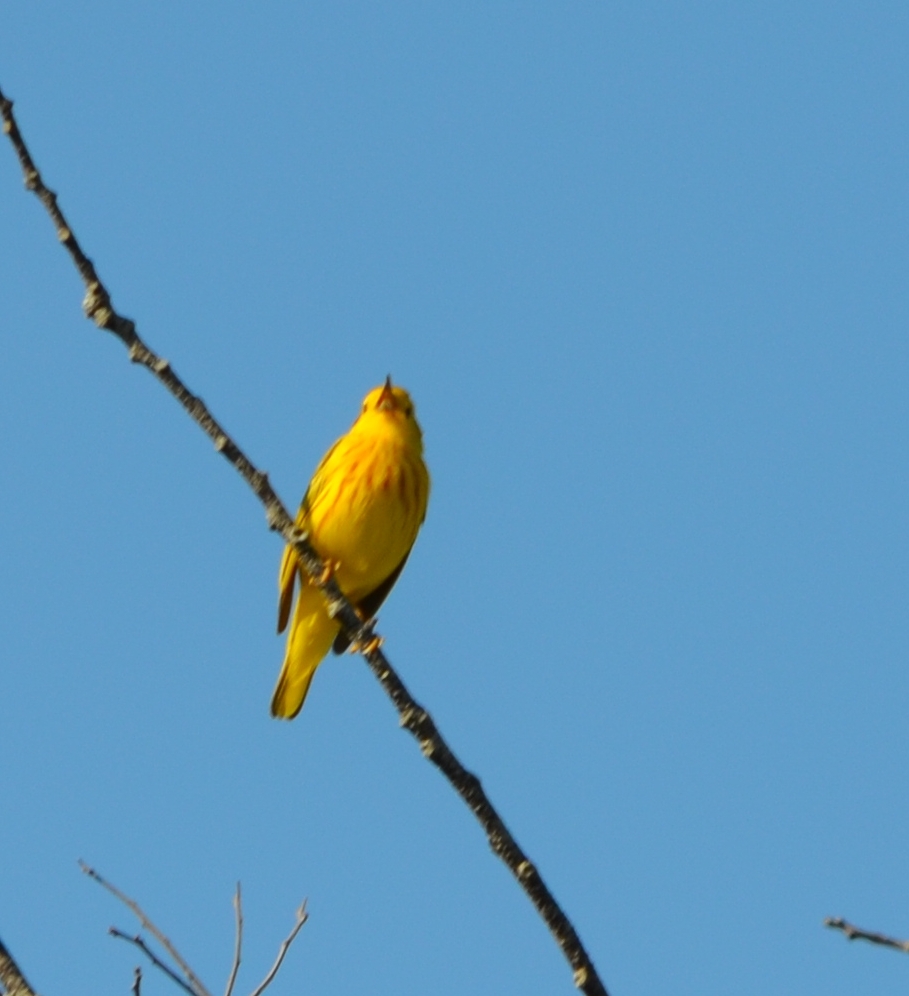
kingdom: Animalia
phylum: Chordata
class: Aves
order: Passeriformes
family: Parulidae
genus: Setophaga
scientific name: Setophaga petechia
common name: Yellow warbler
